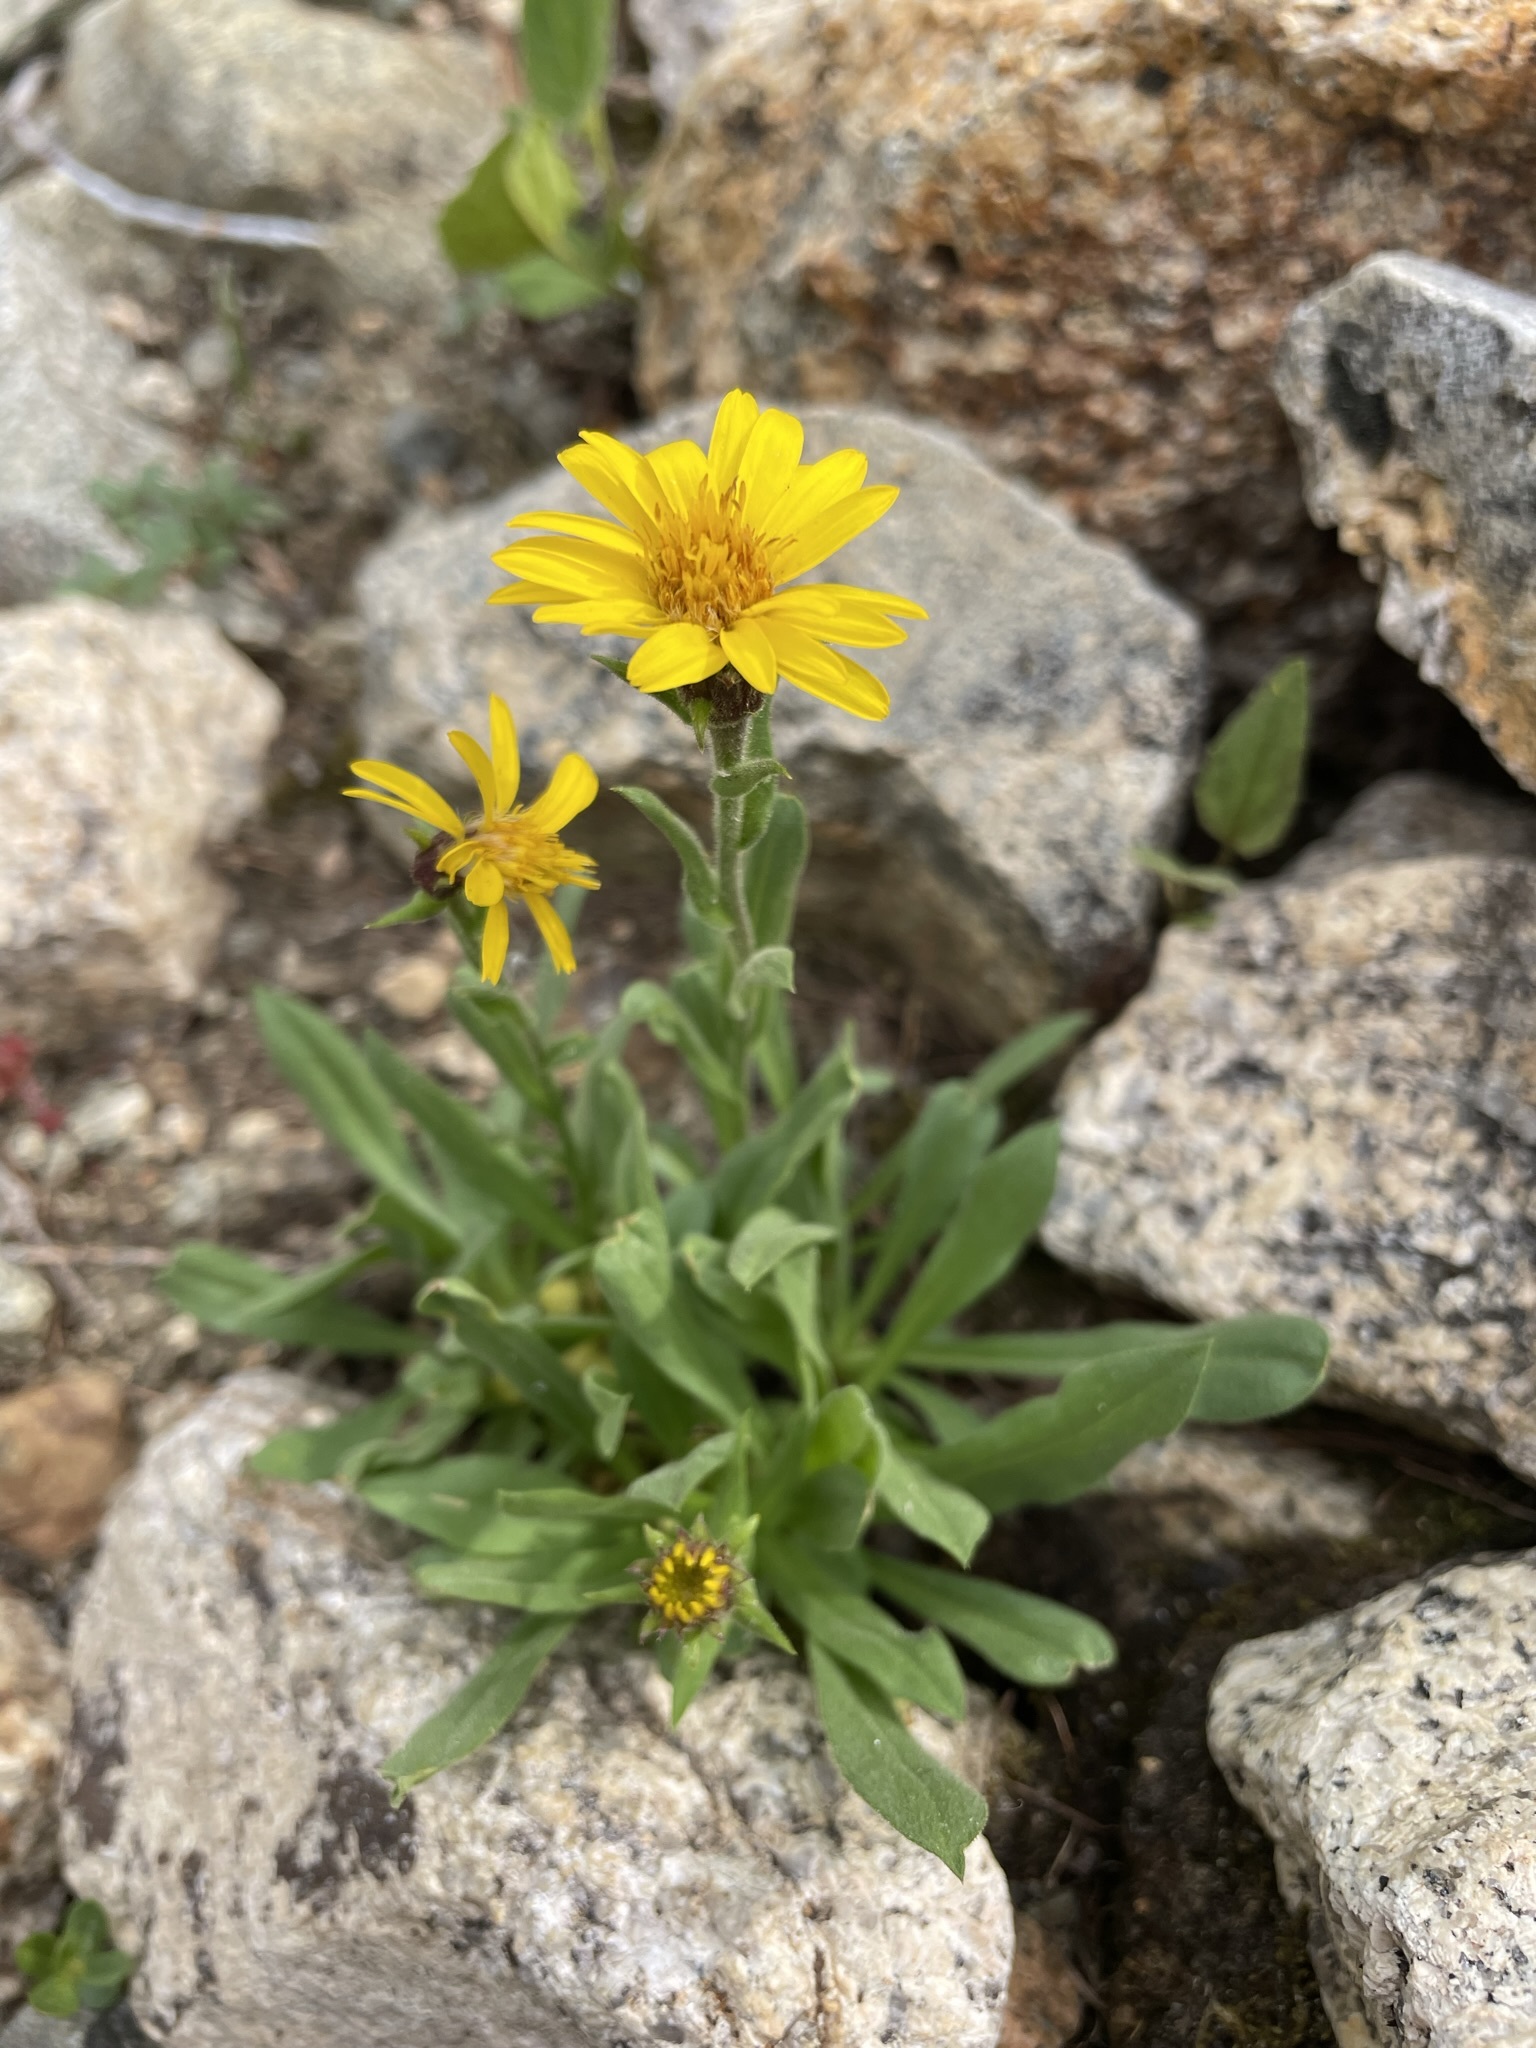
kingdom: Plantae
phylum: Tracheophyta
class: Magnoliopsida
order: Asterales
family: Asteraceae
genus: Tonestus
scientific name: Tonestus lyallii
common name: Lyall's goldenweed
